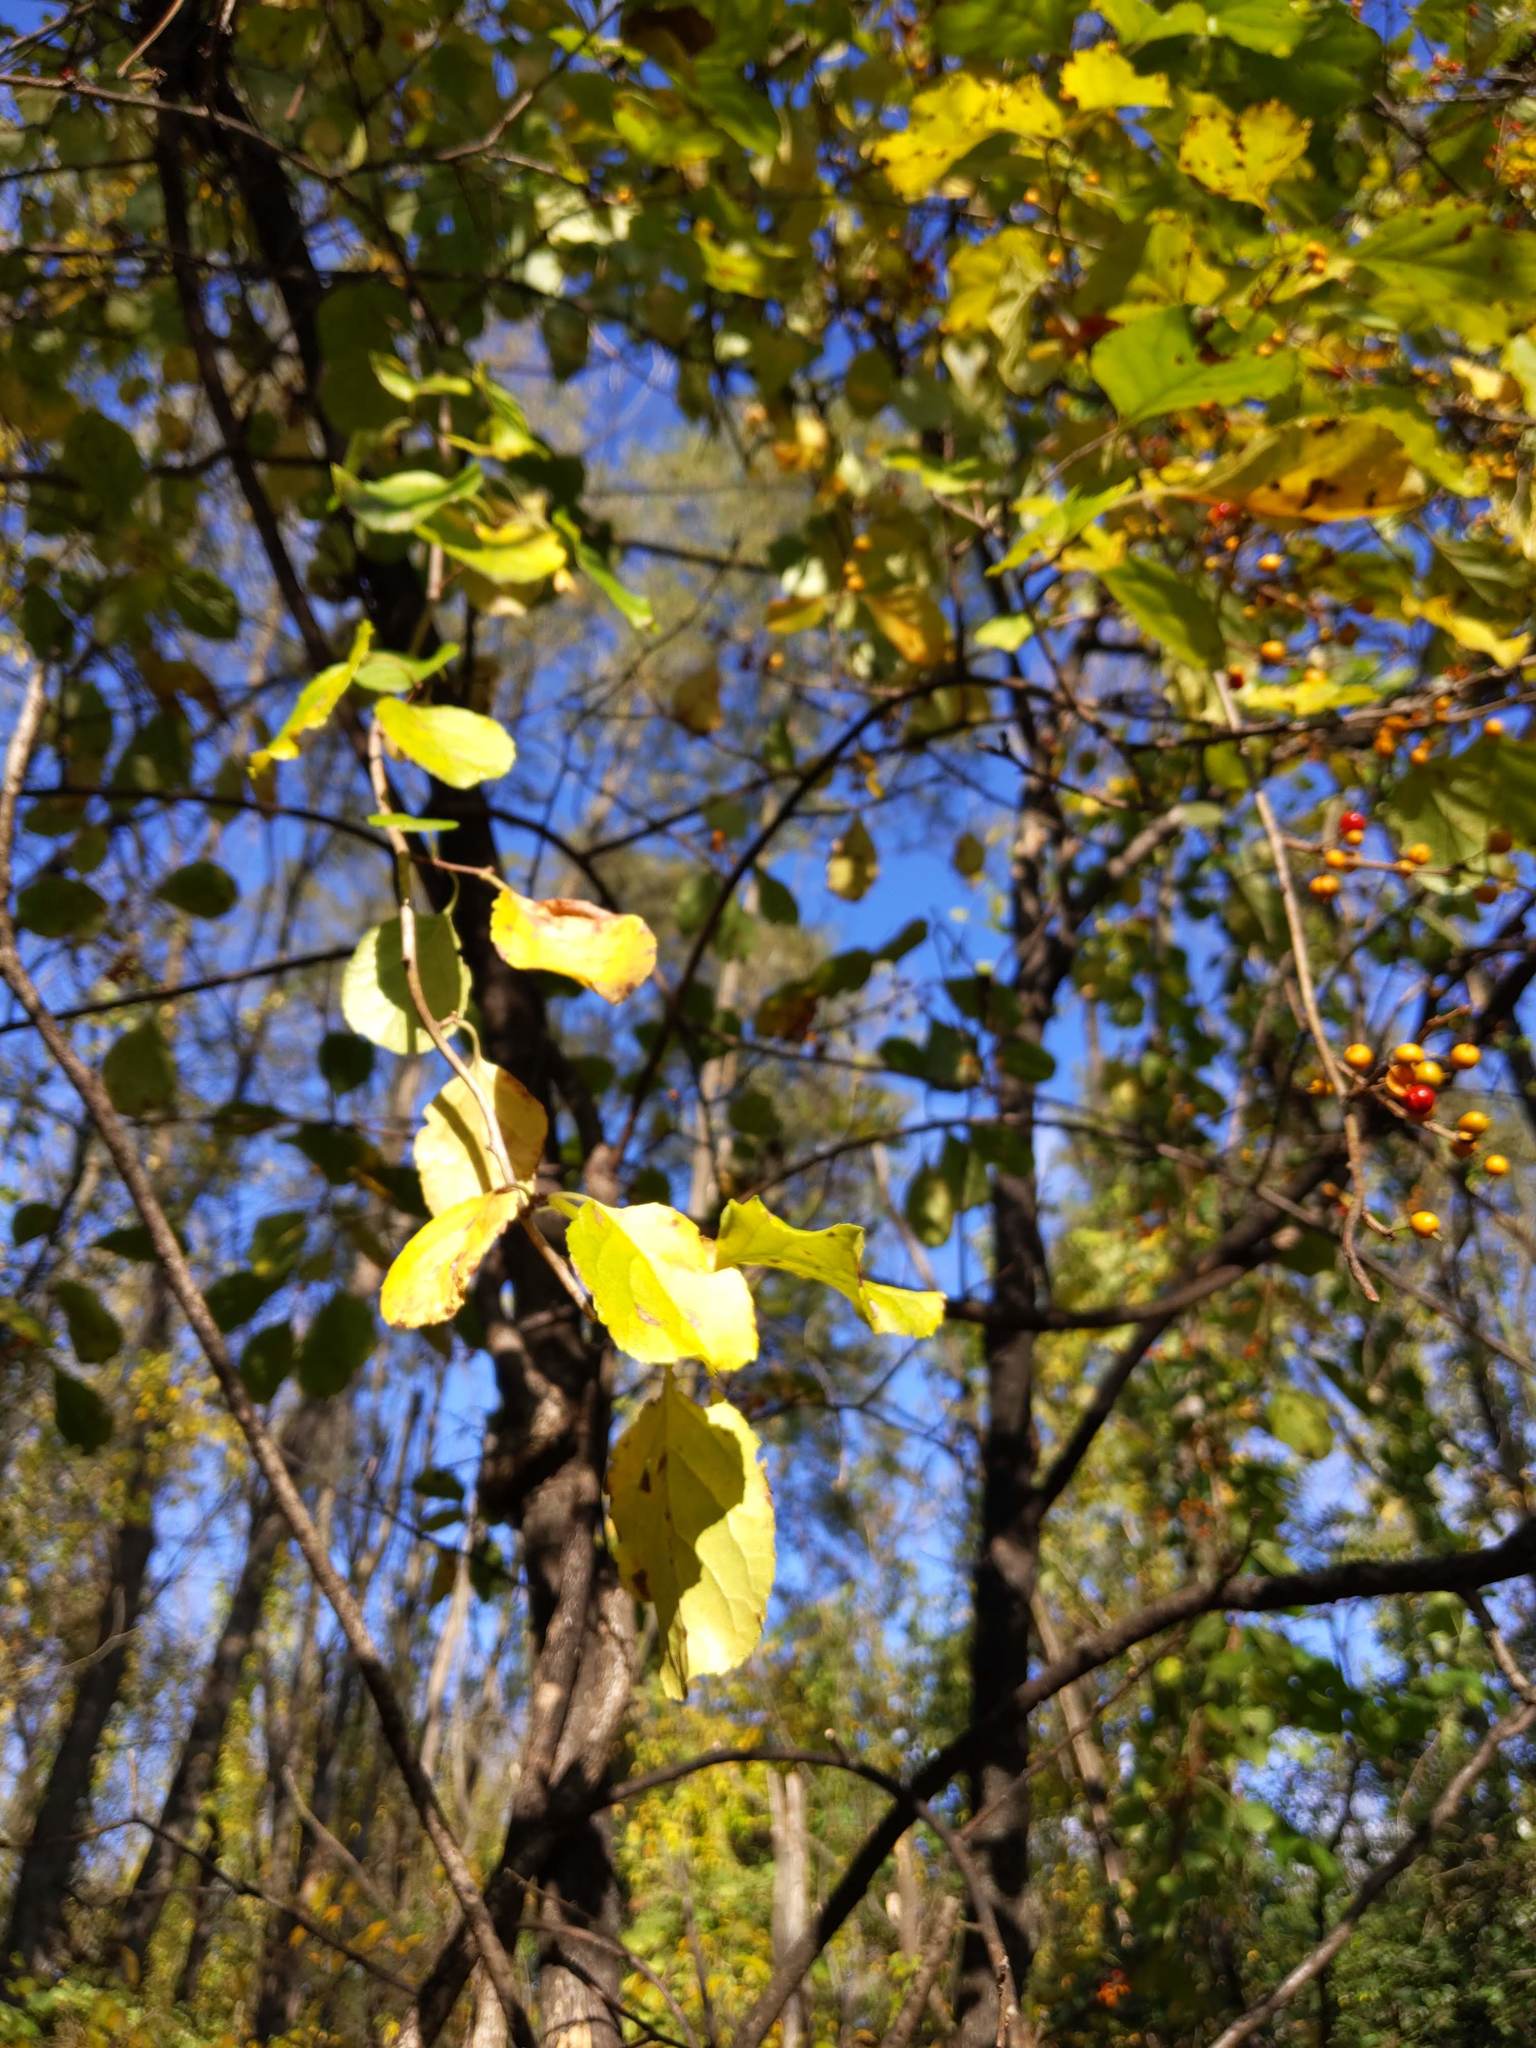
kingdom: Plantae
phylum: Tracheophyta
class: Magnoliopsida
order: Celastrales
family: Celastraceae
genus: Celastrus
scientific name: Celastrus orbiculatus
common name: Oriental bittersweet
